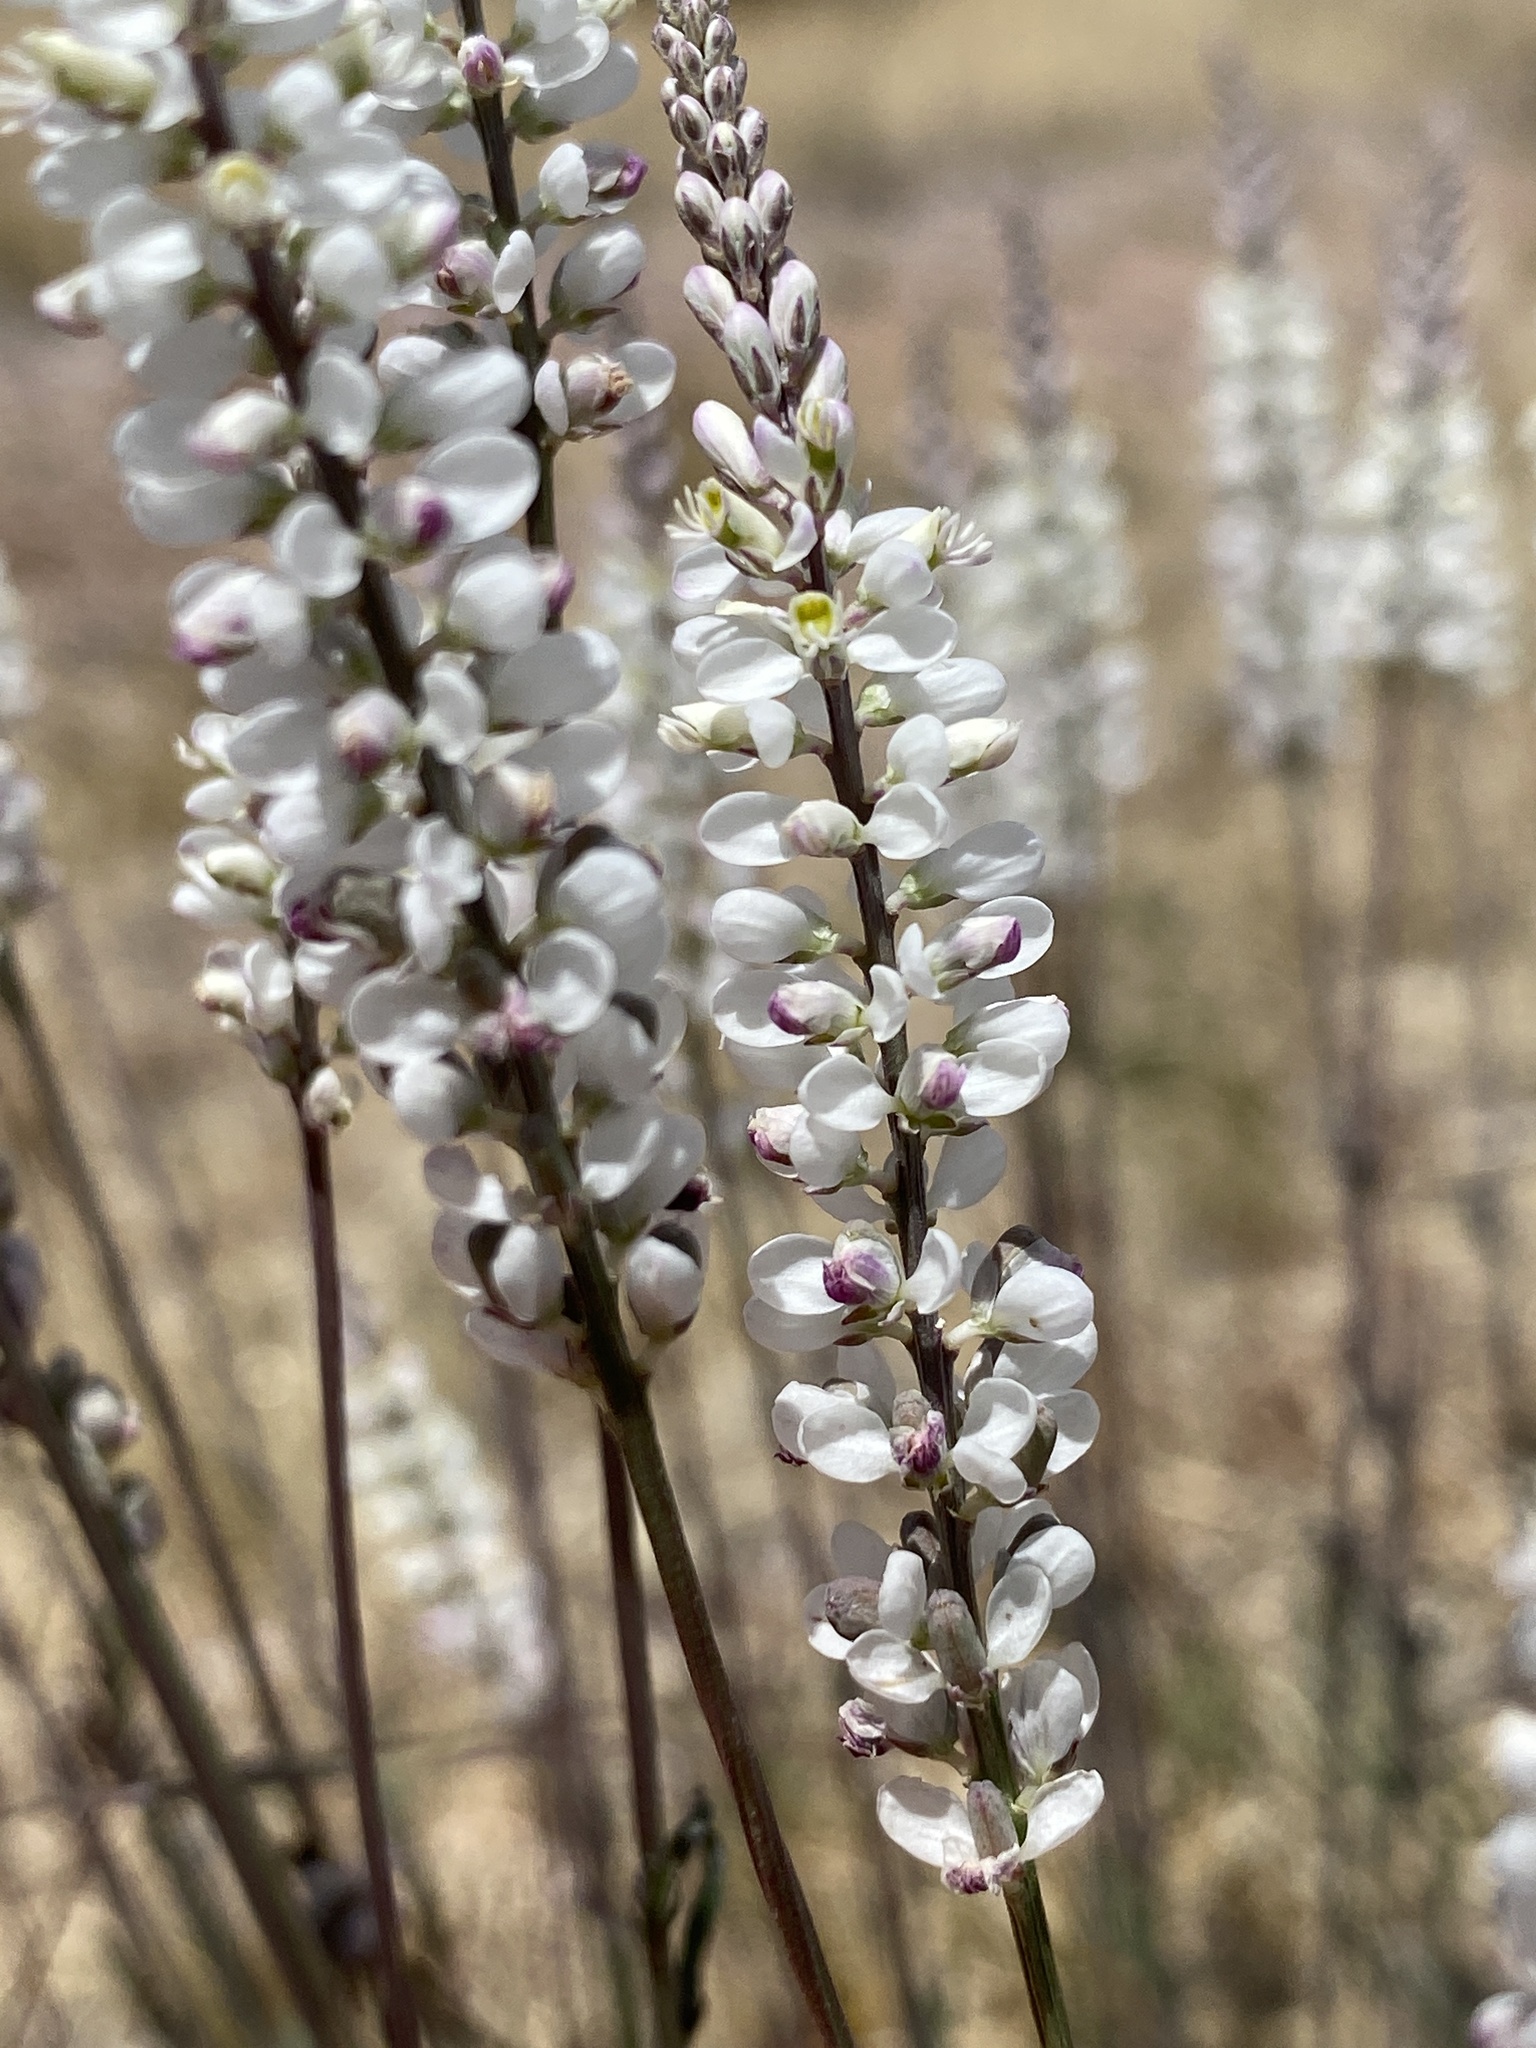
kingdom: Plantae
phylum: Tracheophyta
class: Magnoliopsida
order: Fabales
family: Polygalaceae
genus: Polygala
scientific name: Polygala alba
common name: White milkwort
